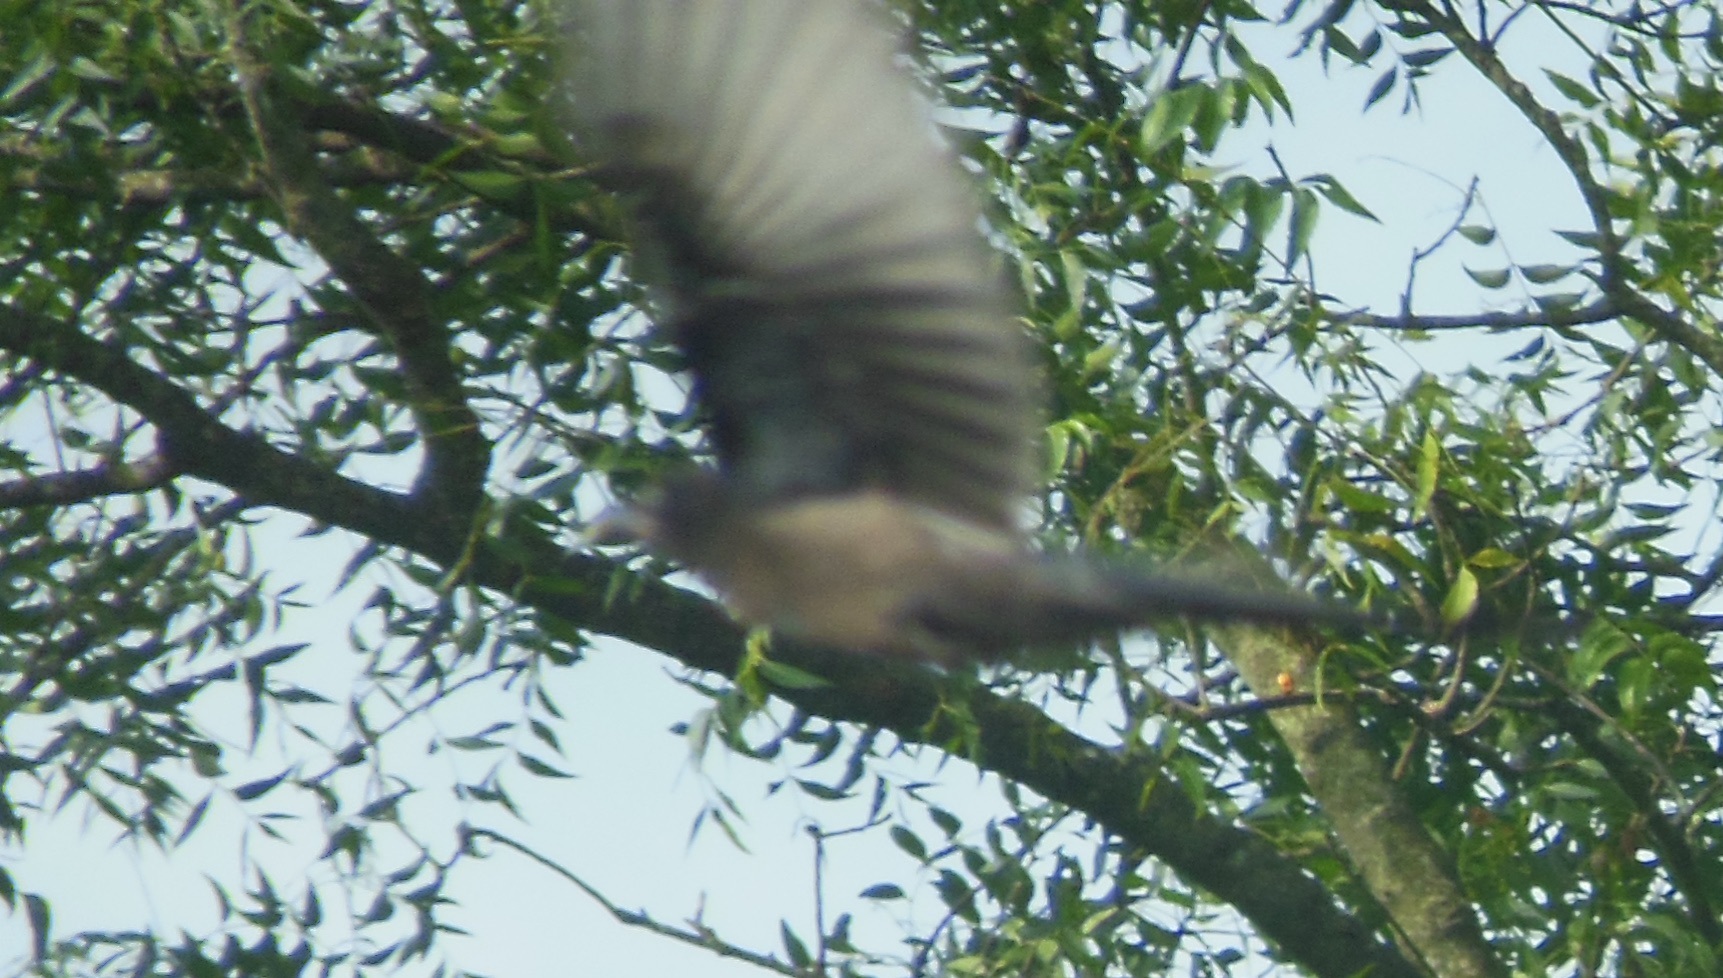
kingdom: Animalia
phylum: Chordata
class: Aves
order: Cuculiformes
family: Cuculidae
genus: Rhopodytes
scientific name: Rhopodytes viridirostris
